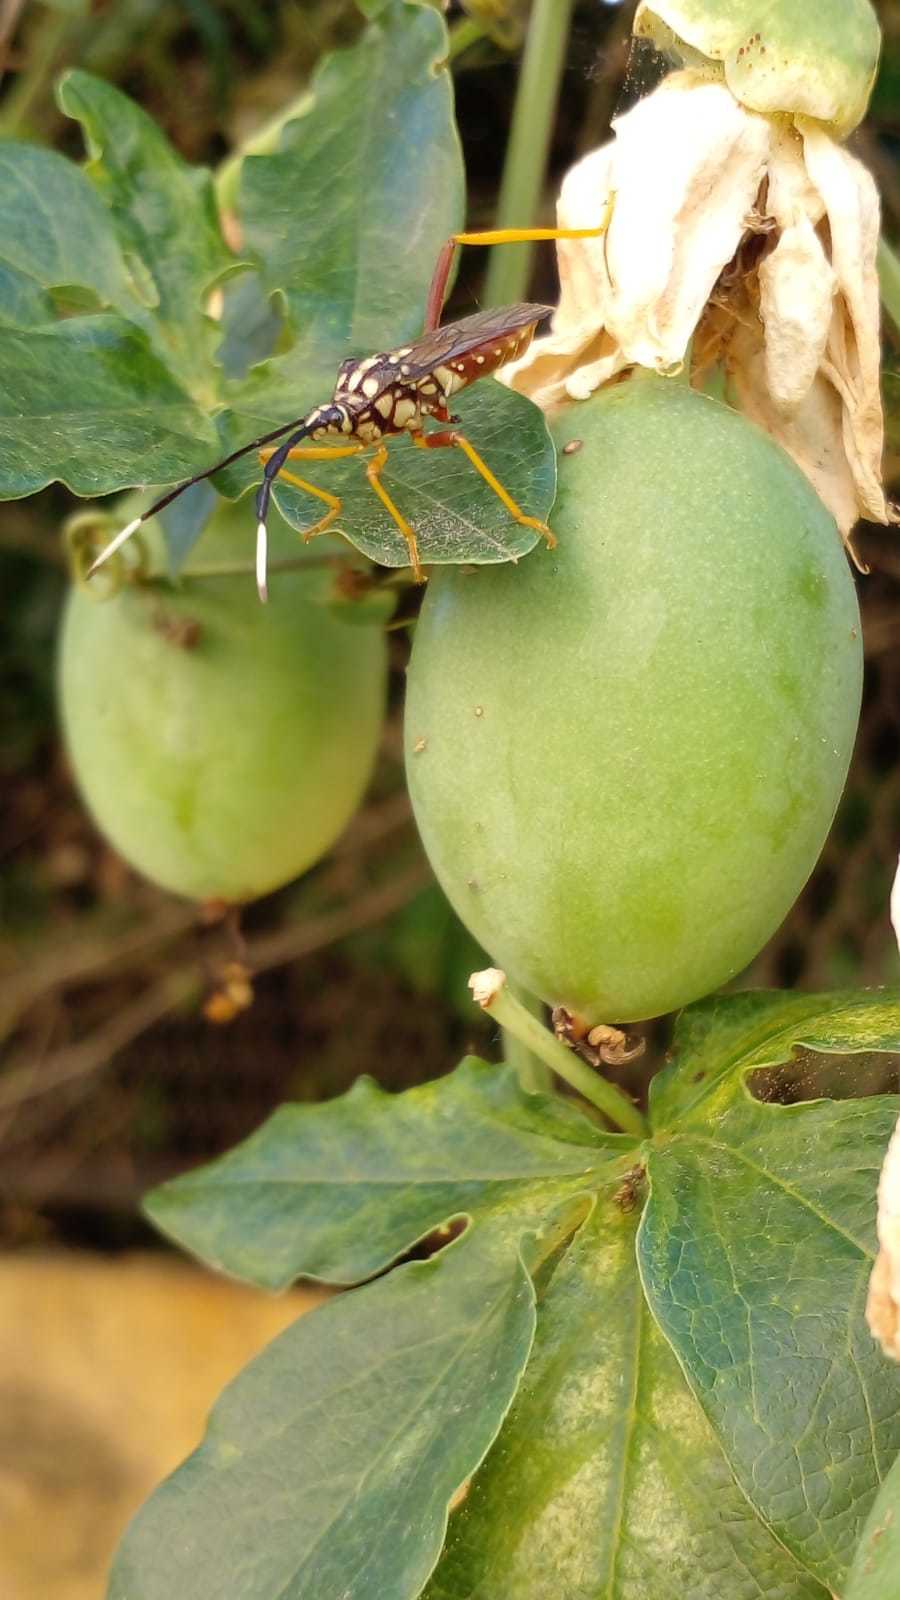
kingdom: Animalia
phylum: Arthropoda
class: Insecta
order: Hemiptera
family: Coreidae
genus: Holhymenia
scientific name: Holhymenia histrio
